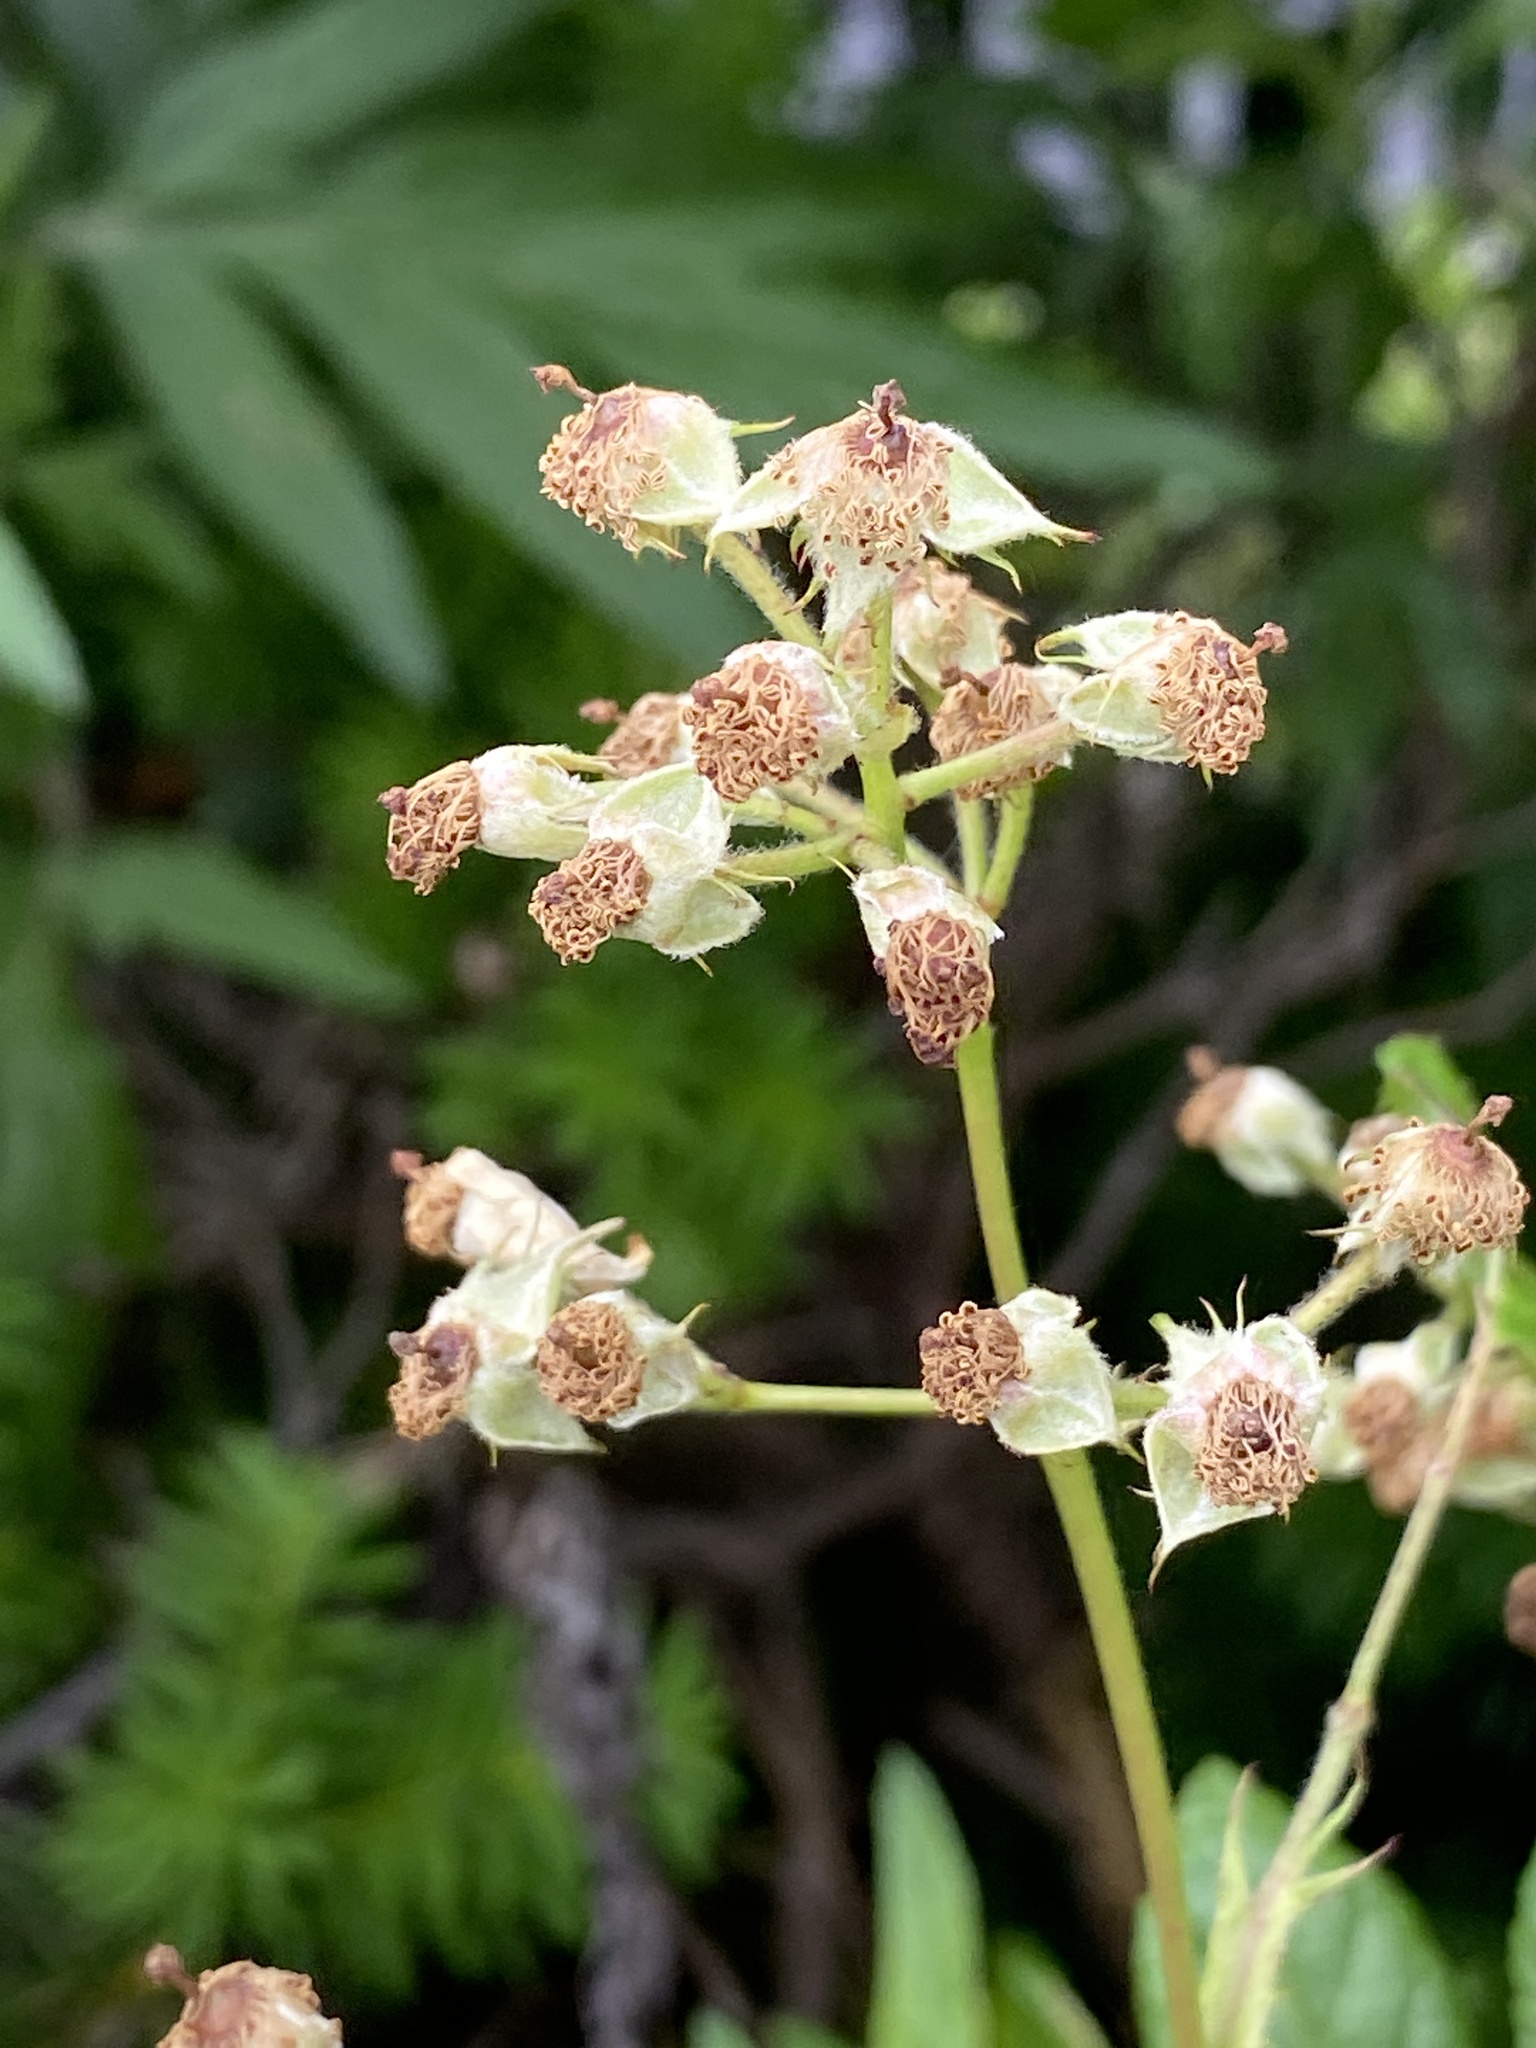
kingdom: Plantae
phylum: Tracheophyta
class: Magnoliopsida
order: Rosales
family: Rosaceae
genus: Rosa
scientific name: Rosa multiflora
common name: Multiflora rose
